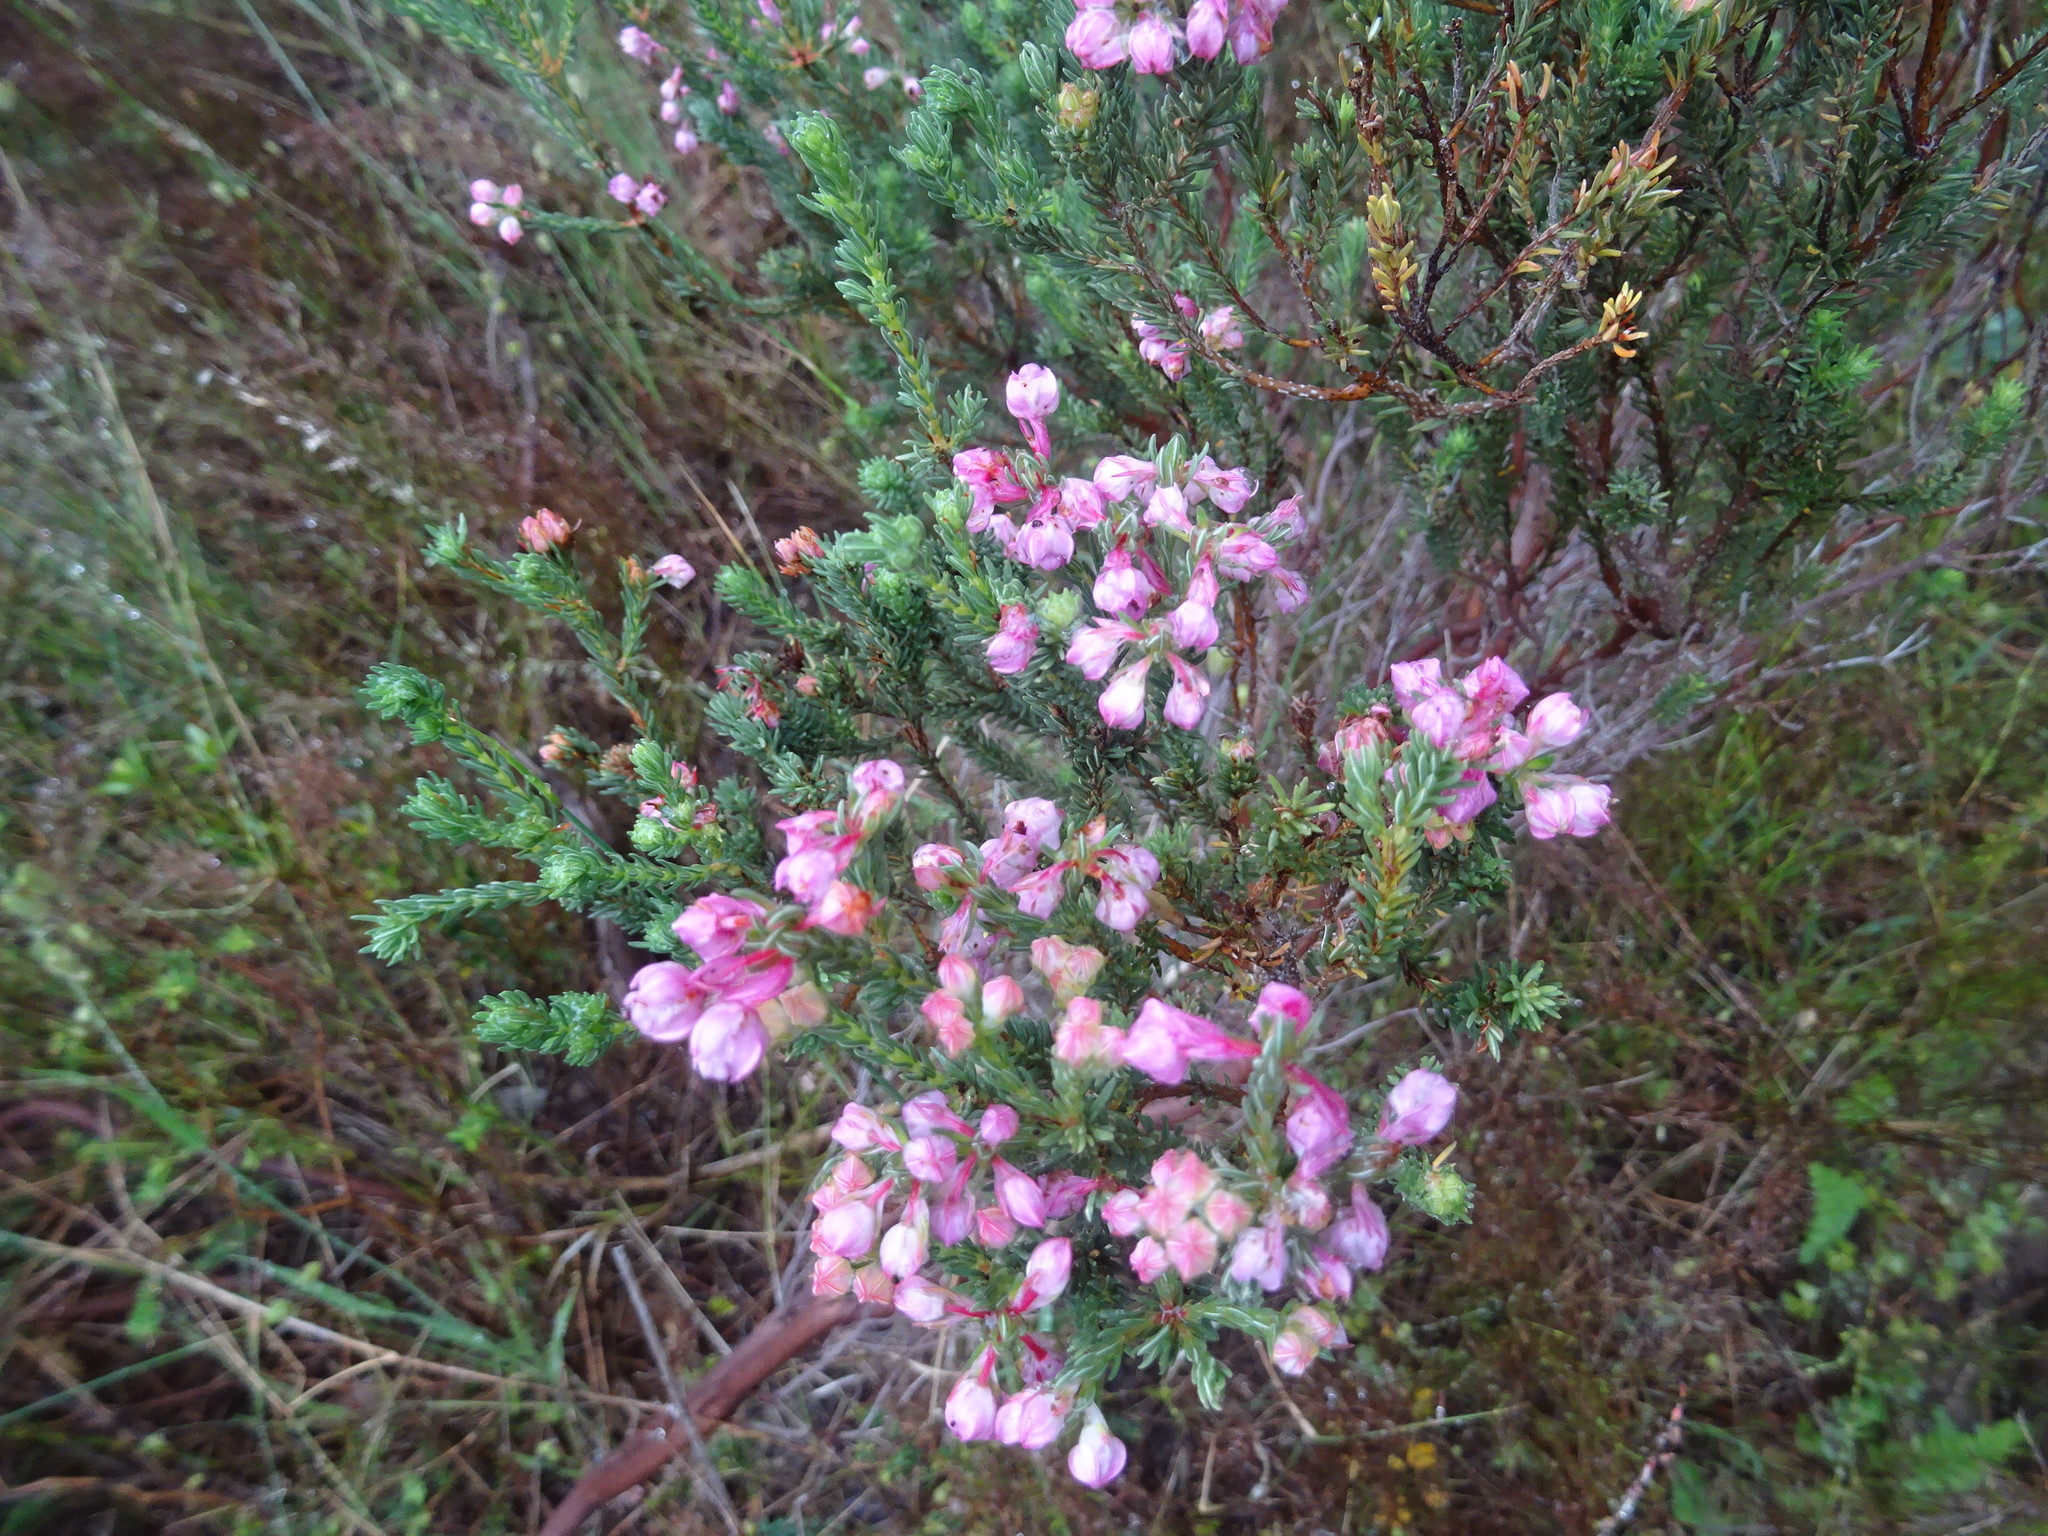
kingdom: Plantae
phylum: Tracheophyta
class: Magnoliopsida
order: Ericales
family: Ericaceae
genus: Erica
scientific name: Erica baccans
